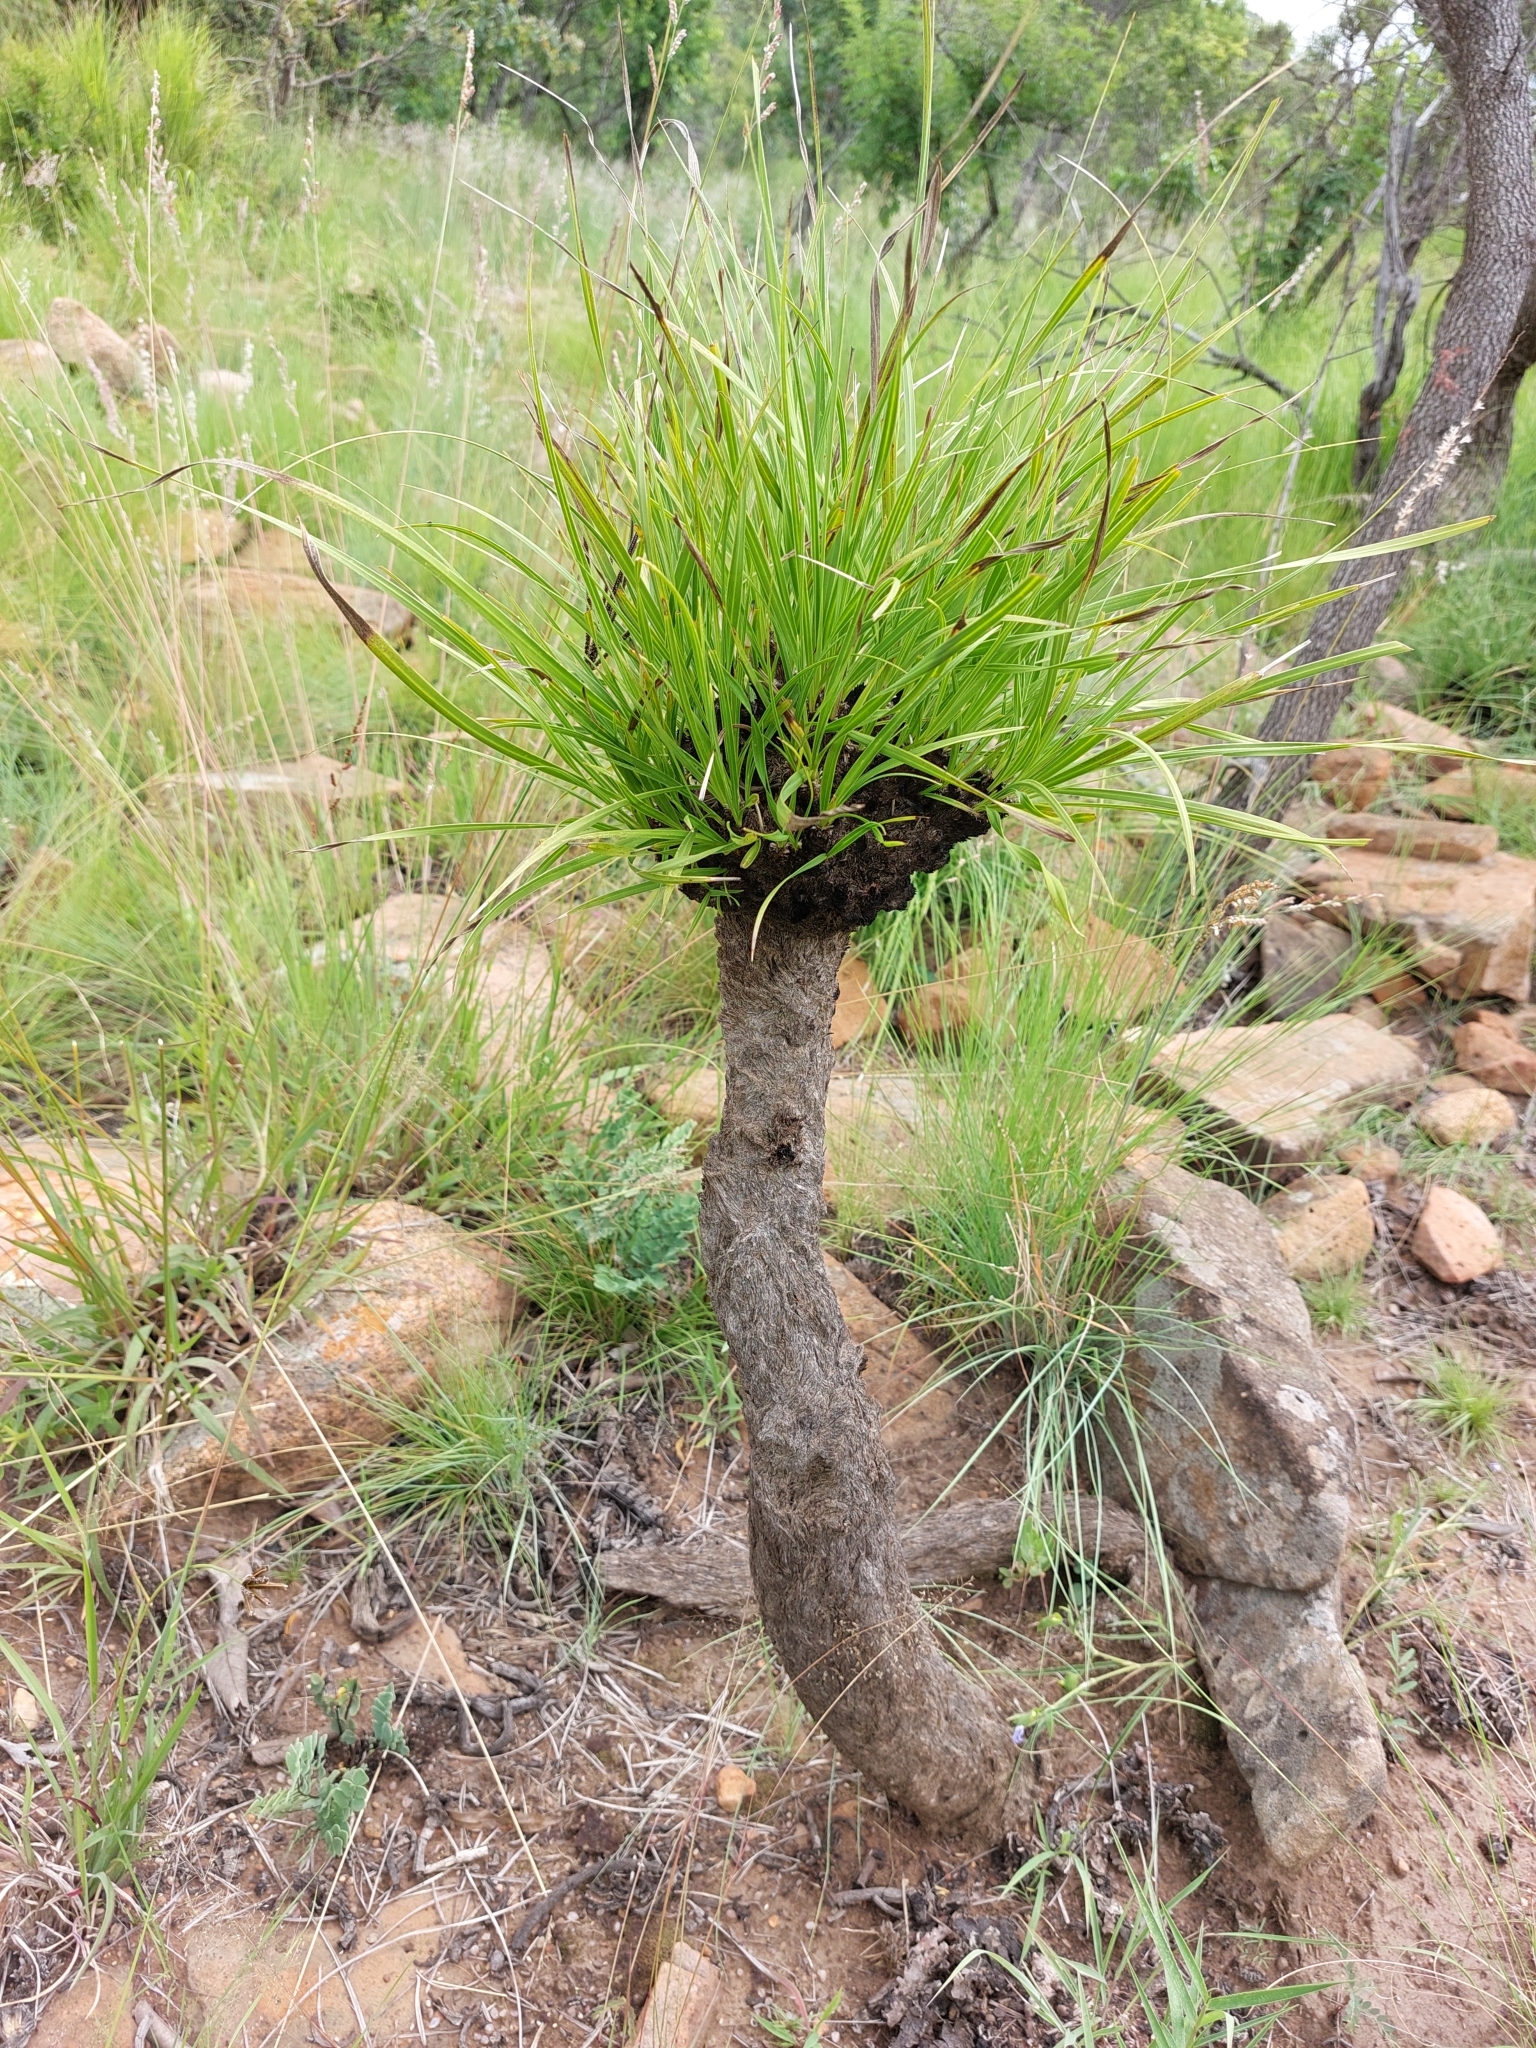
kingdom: Plantae
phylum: Tracheophyta
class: Liliopsida
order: Pandanales
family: Velloziaceae
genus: Xerophyta
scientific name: Xerophyta retinervis
